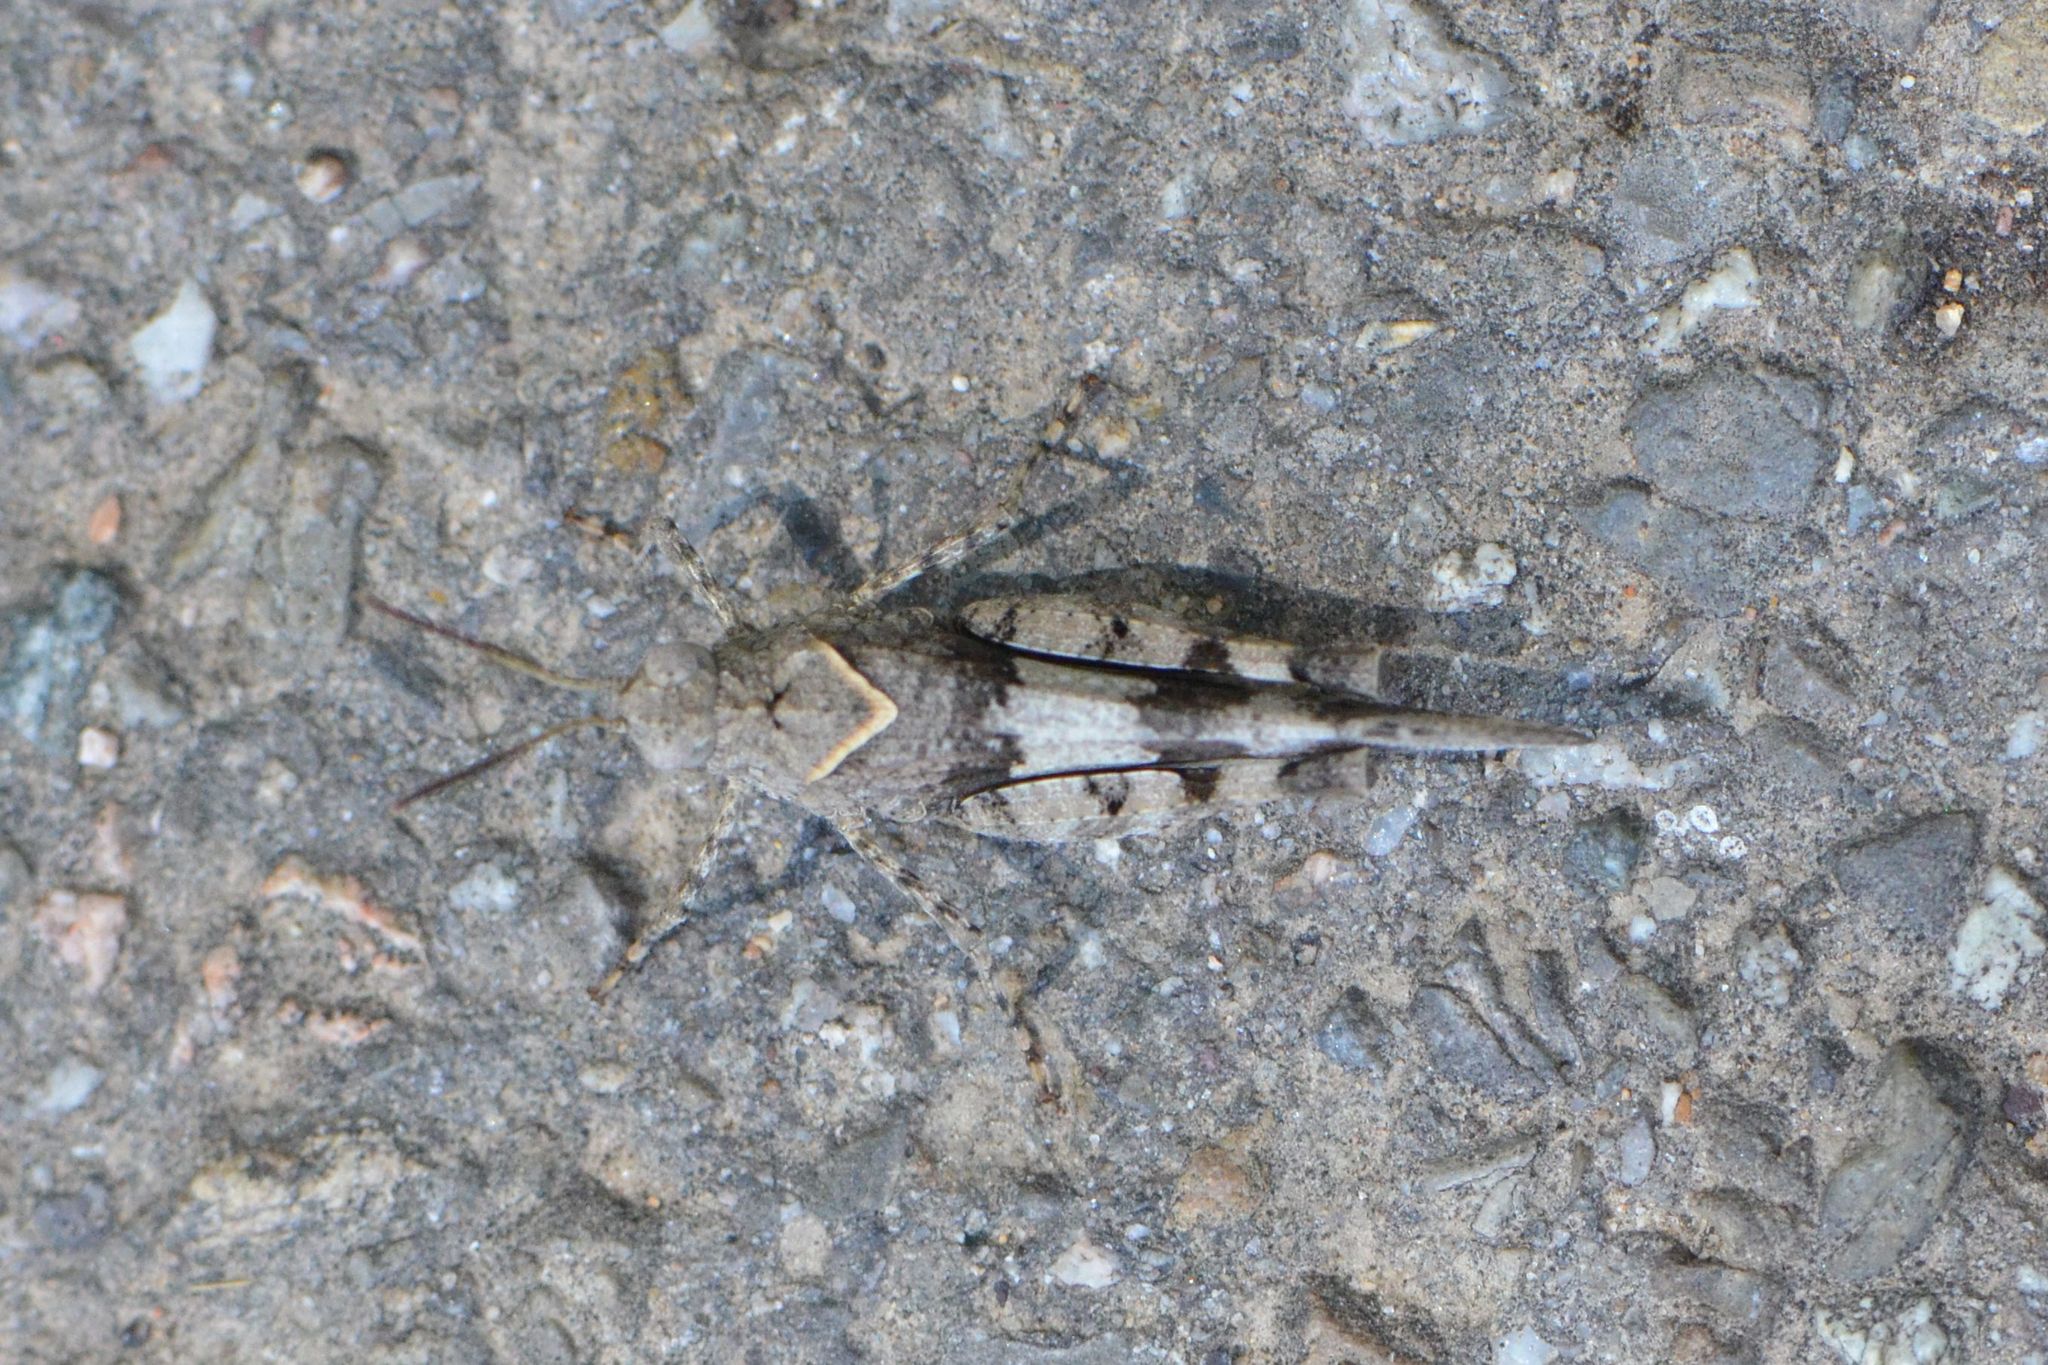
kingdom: Animalia
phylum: Arthropoda
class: Insecta
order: Orthoptera
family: Acrididae
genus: Oedipoda
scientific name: Oedipoda caerulescens
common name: Blue-winged grasshopper
